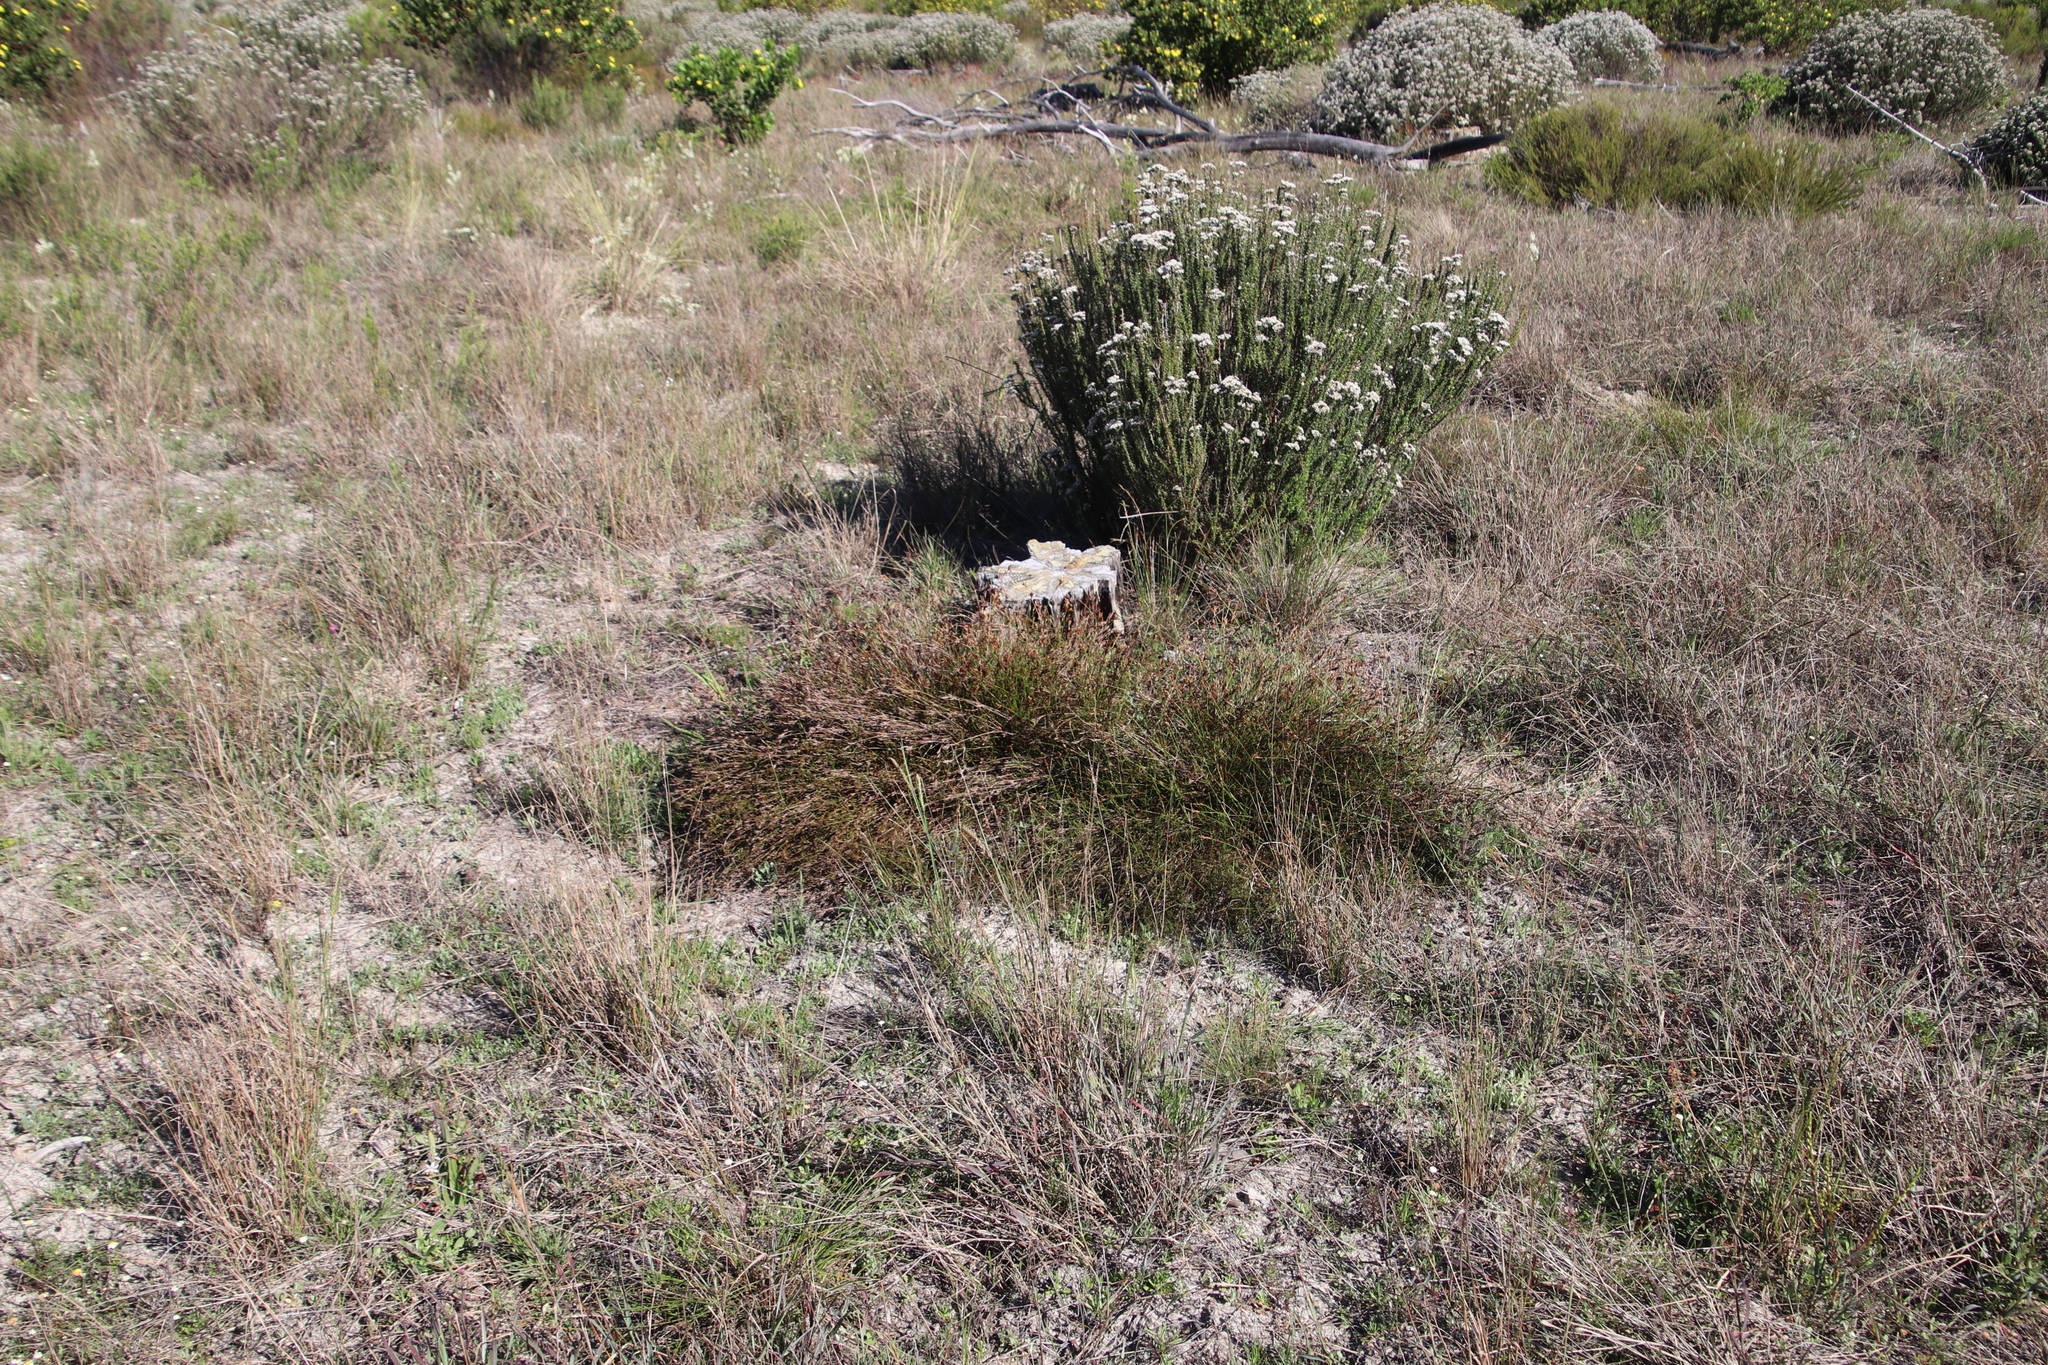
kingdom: Plantae
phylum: Tracheophyta
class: Liliopsida
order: Poales
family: Restionaceae
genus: Restio
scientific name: Restio capensis
